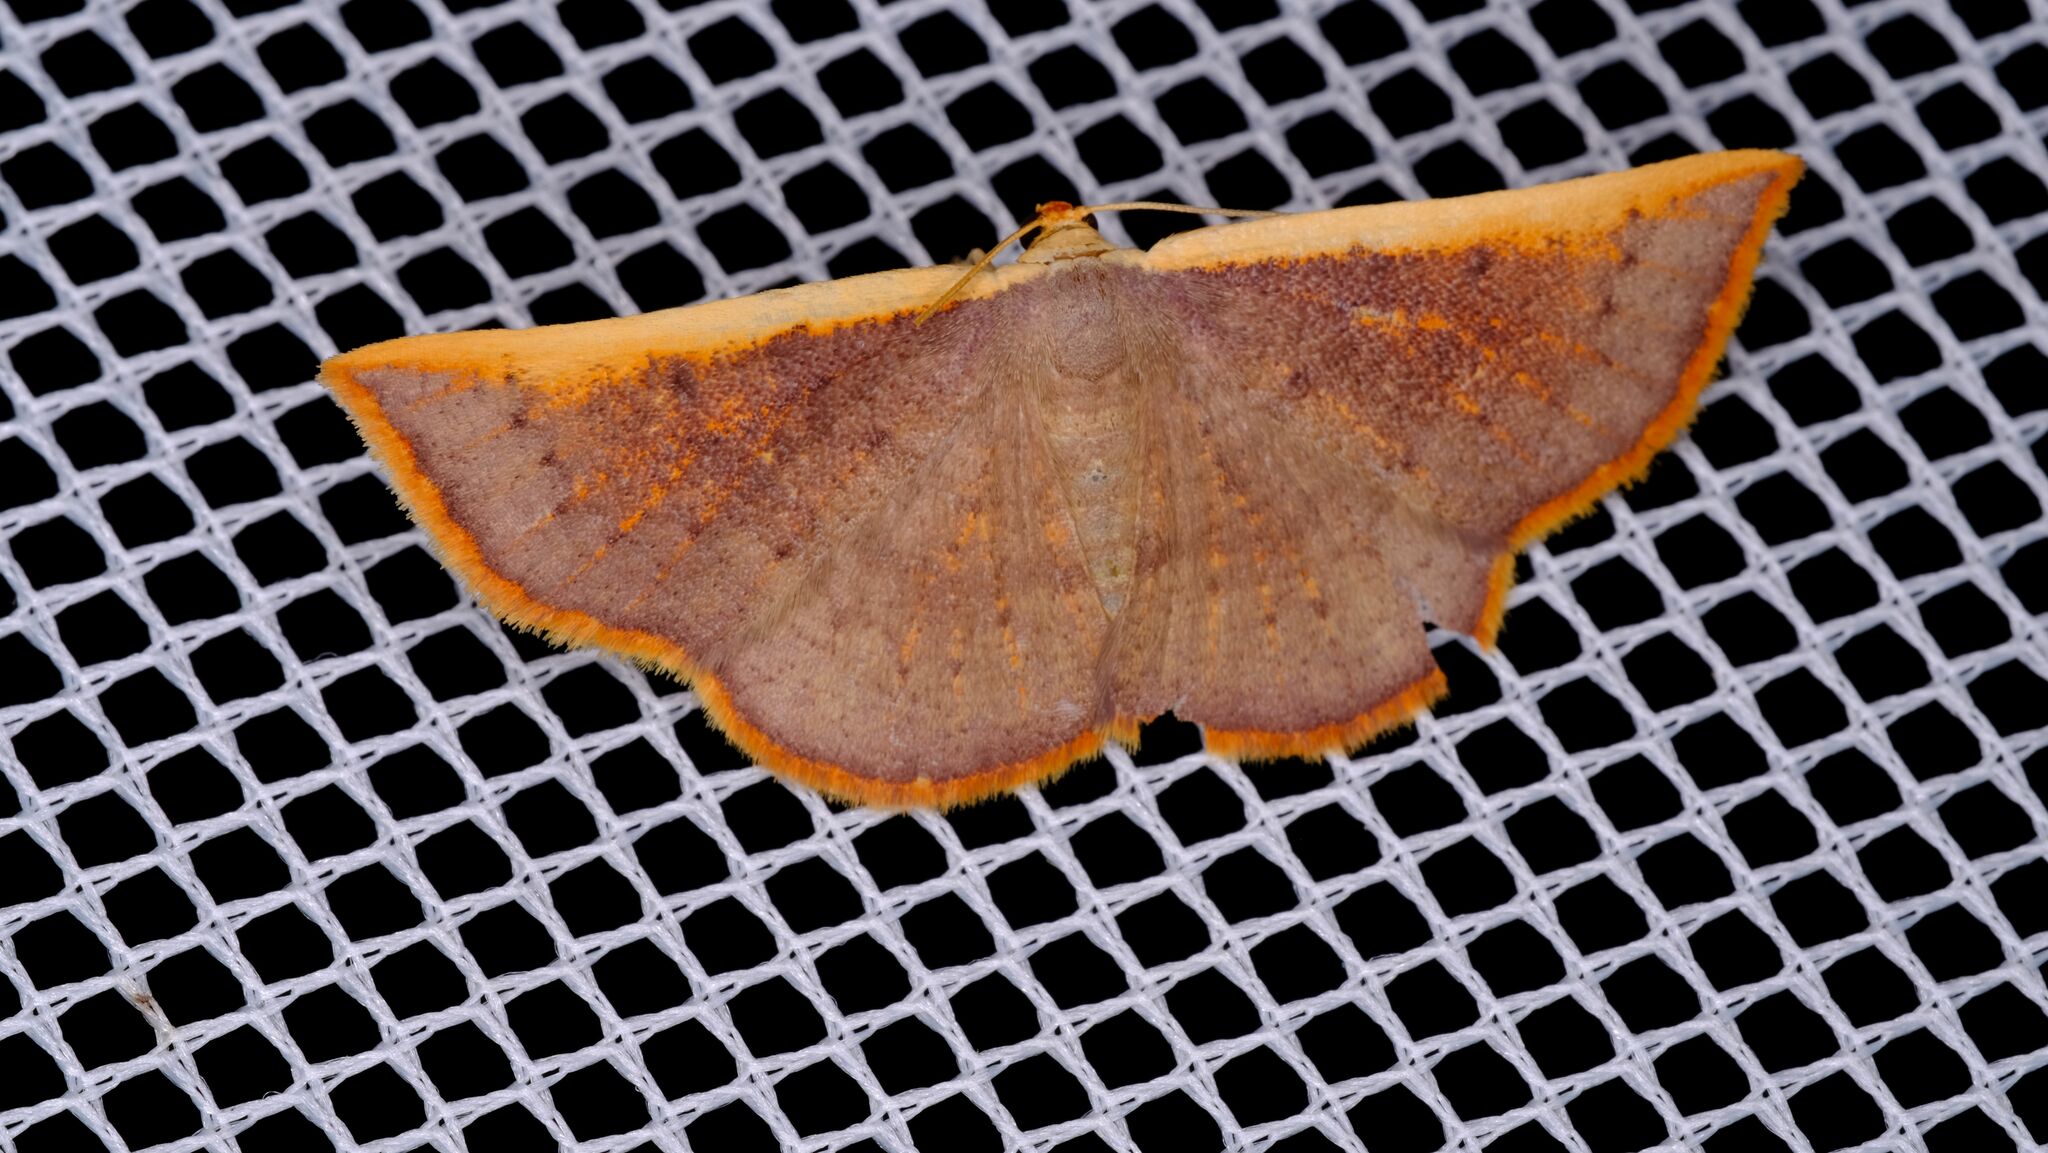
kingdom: Animalia
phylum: Arthropoda
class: Insecta
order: Lepidoptera
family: Geometridae
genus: Picromorpha
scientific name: Picromorpha pyrrhopa
